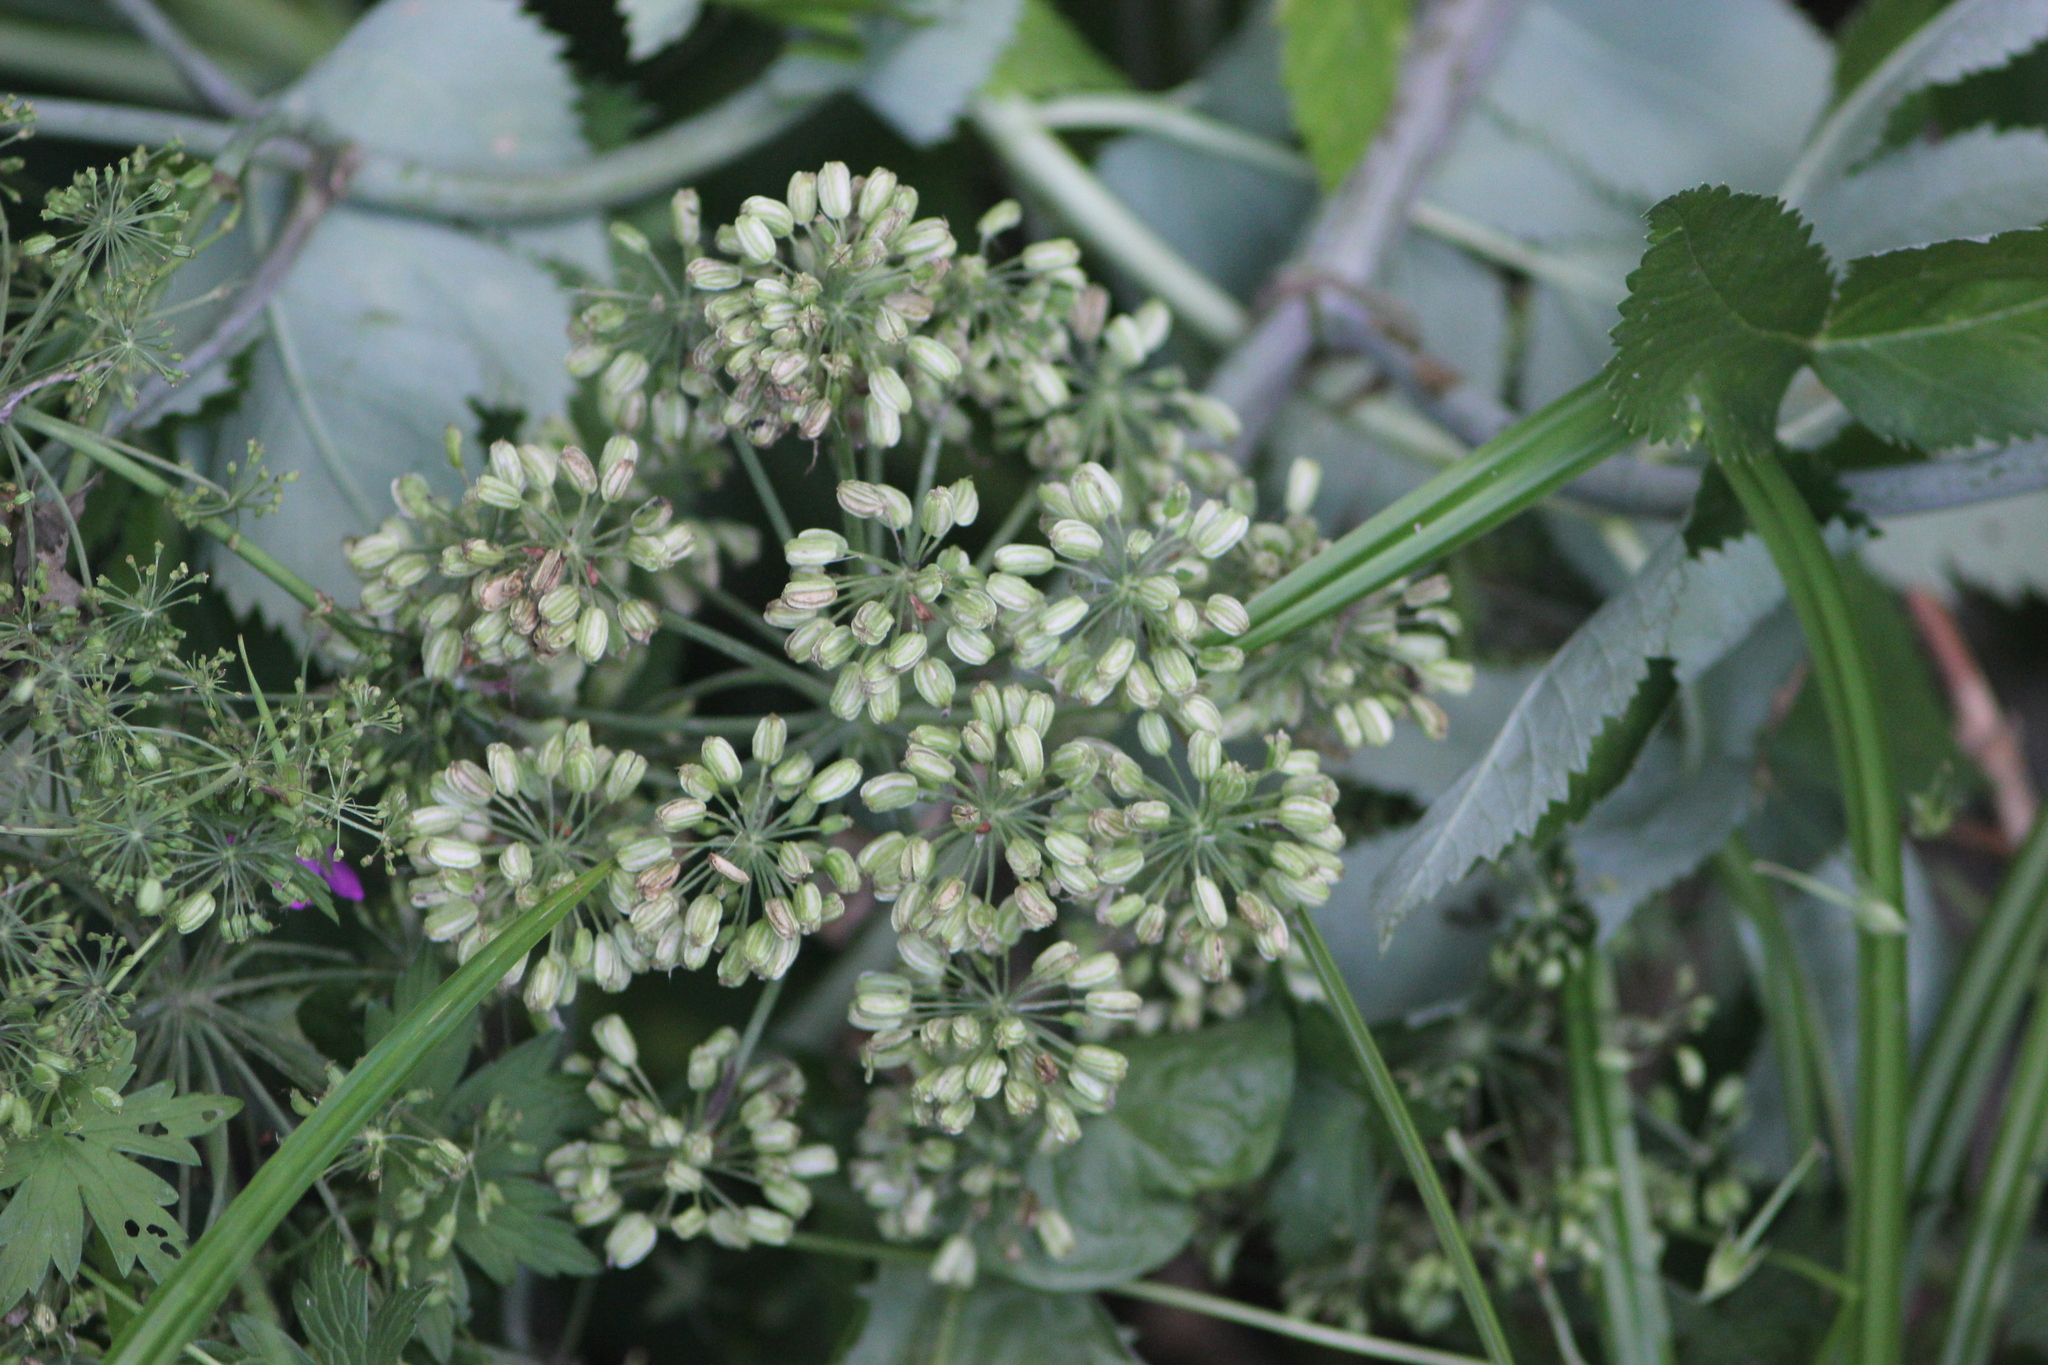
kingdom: Plantae
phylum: Tracheophyta
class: Magnoliopsida
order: Apiales
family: Apiaceae
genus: Angelica
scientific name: Angelica archangelica
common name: Garden angelica
